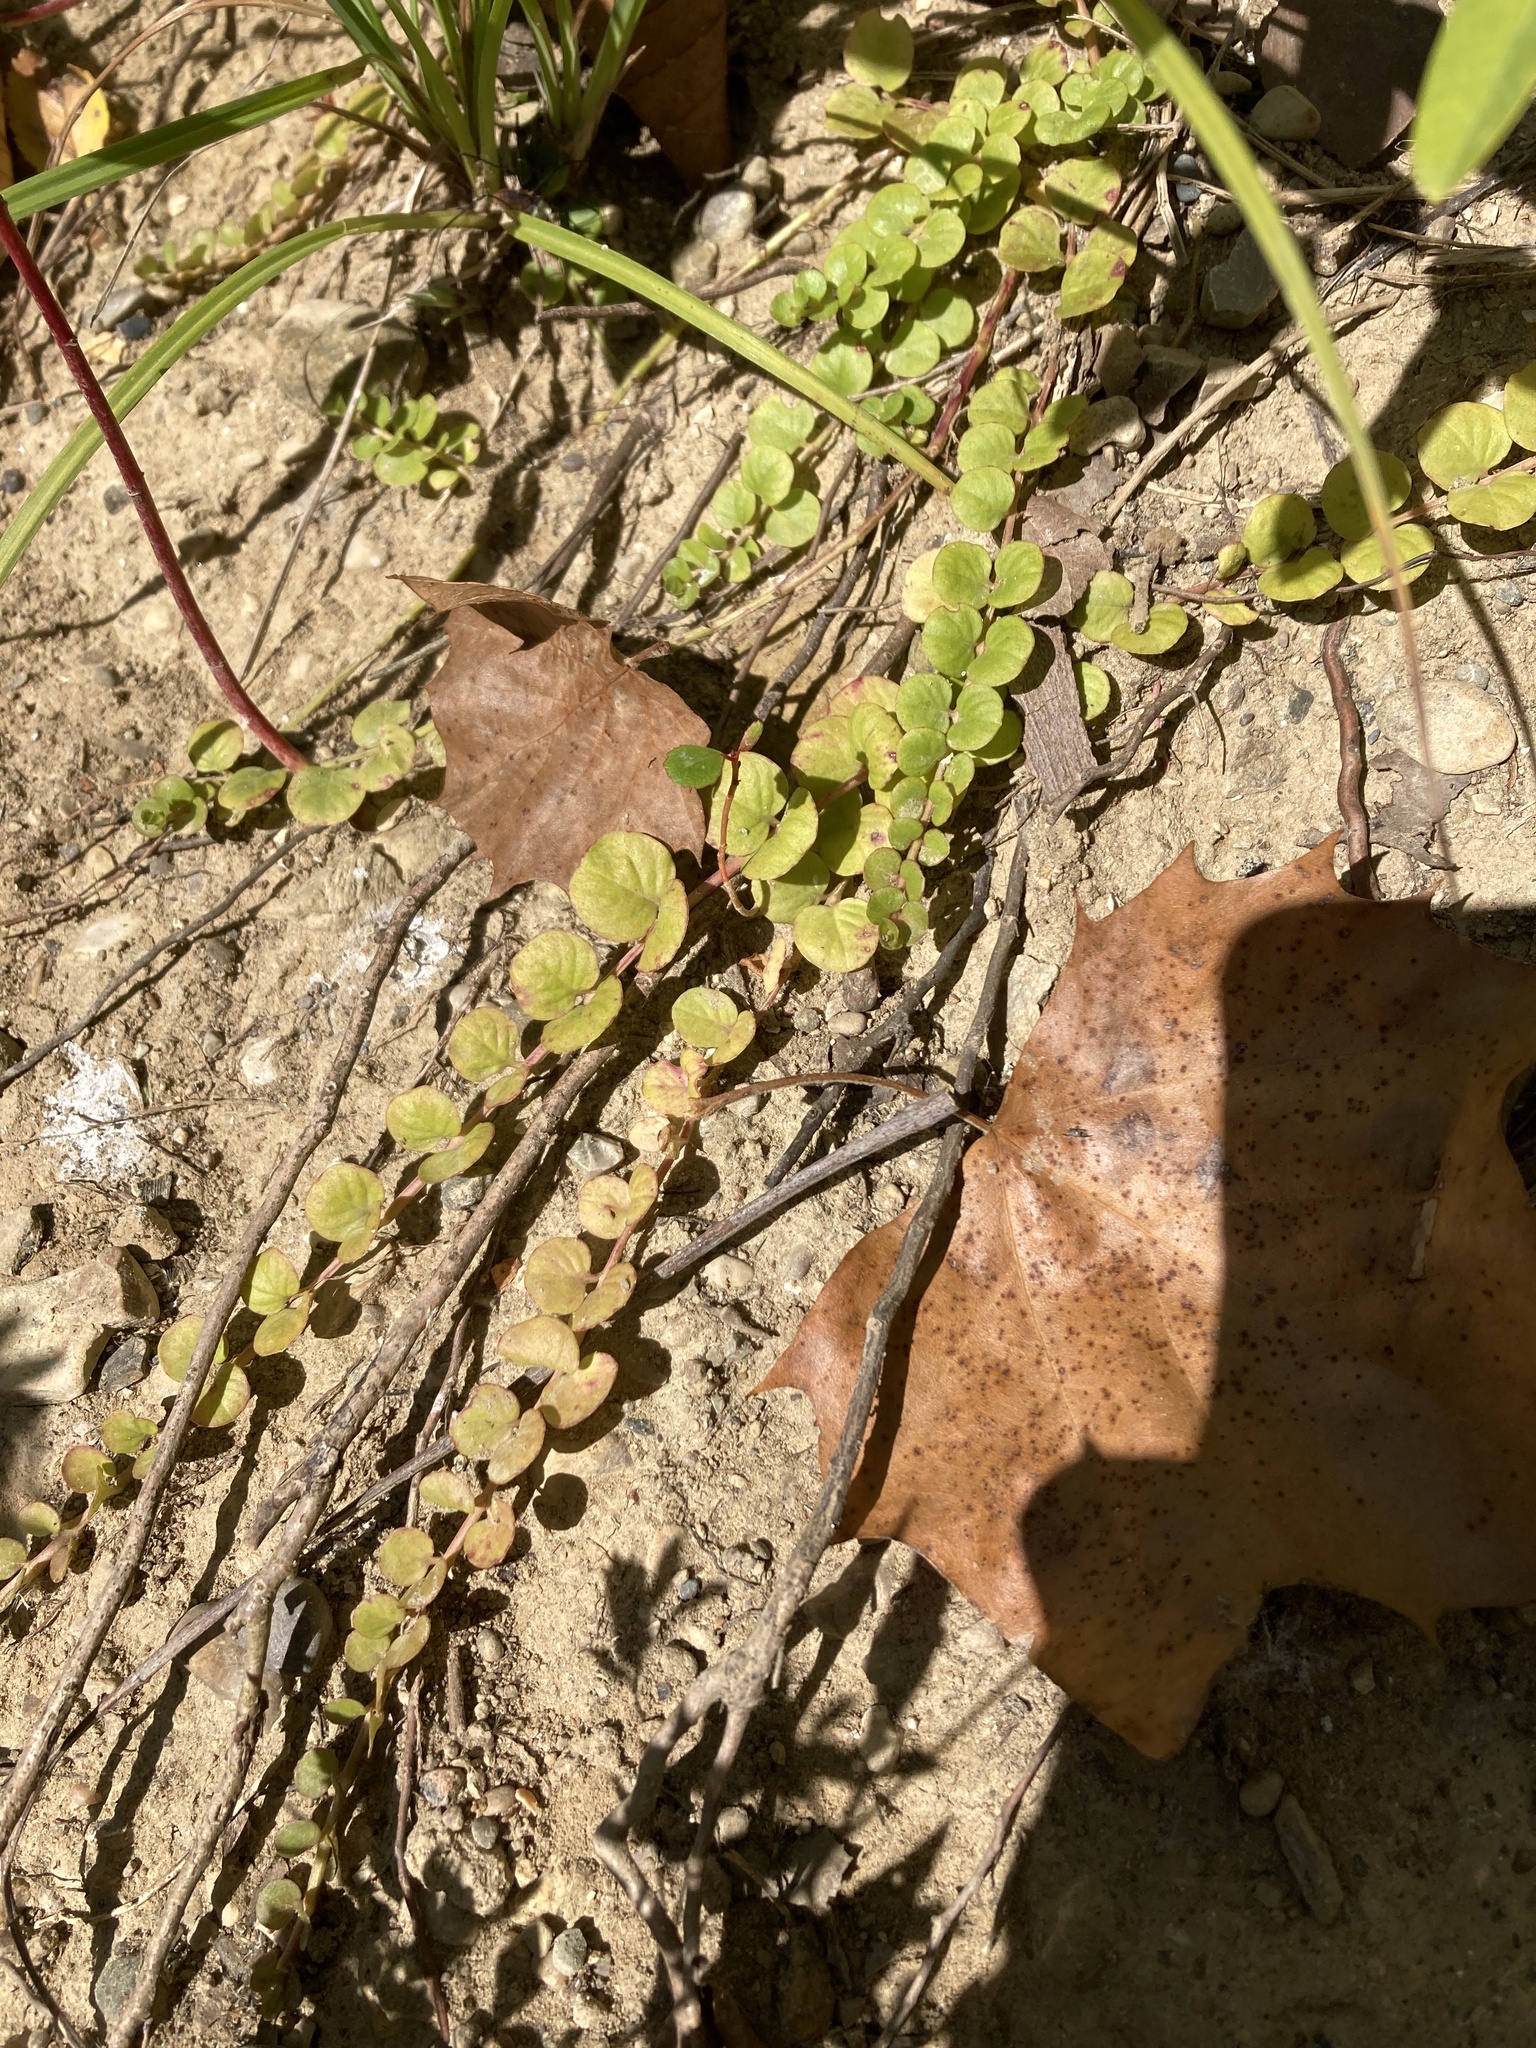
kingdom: Plantae
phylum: Tracheophyta
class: Magnoliopsida
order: Ericales
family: Primulaceae
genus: Lysimachia
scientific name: Lysimachia nummularia
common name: Moneywort
